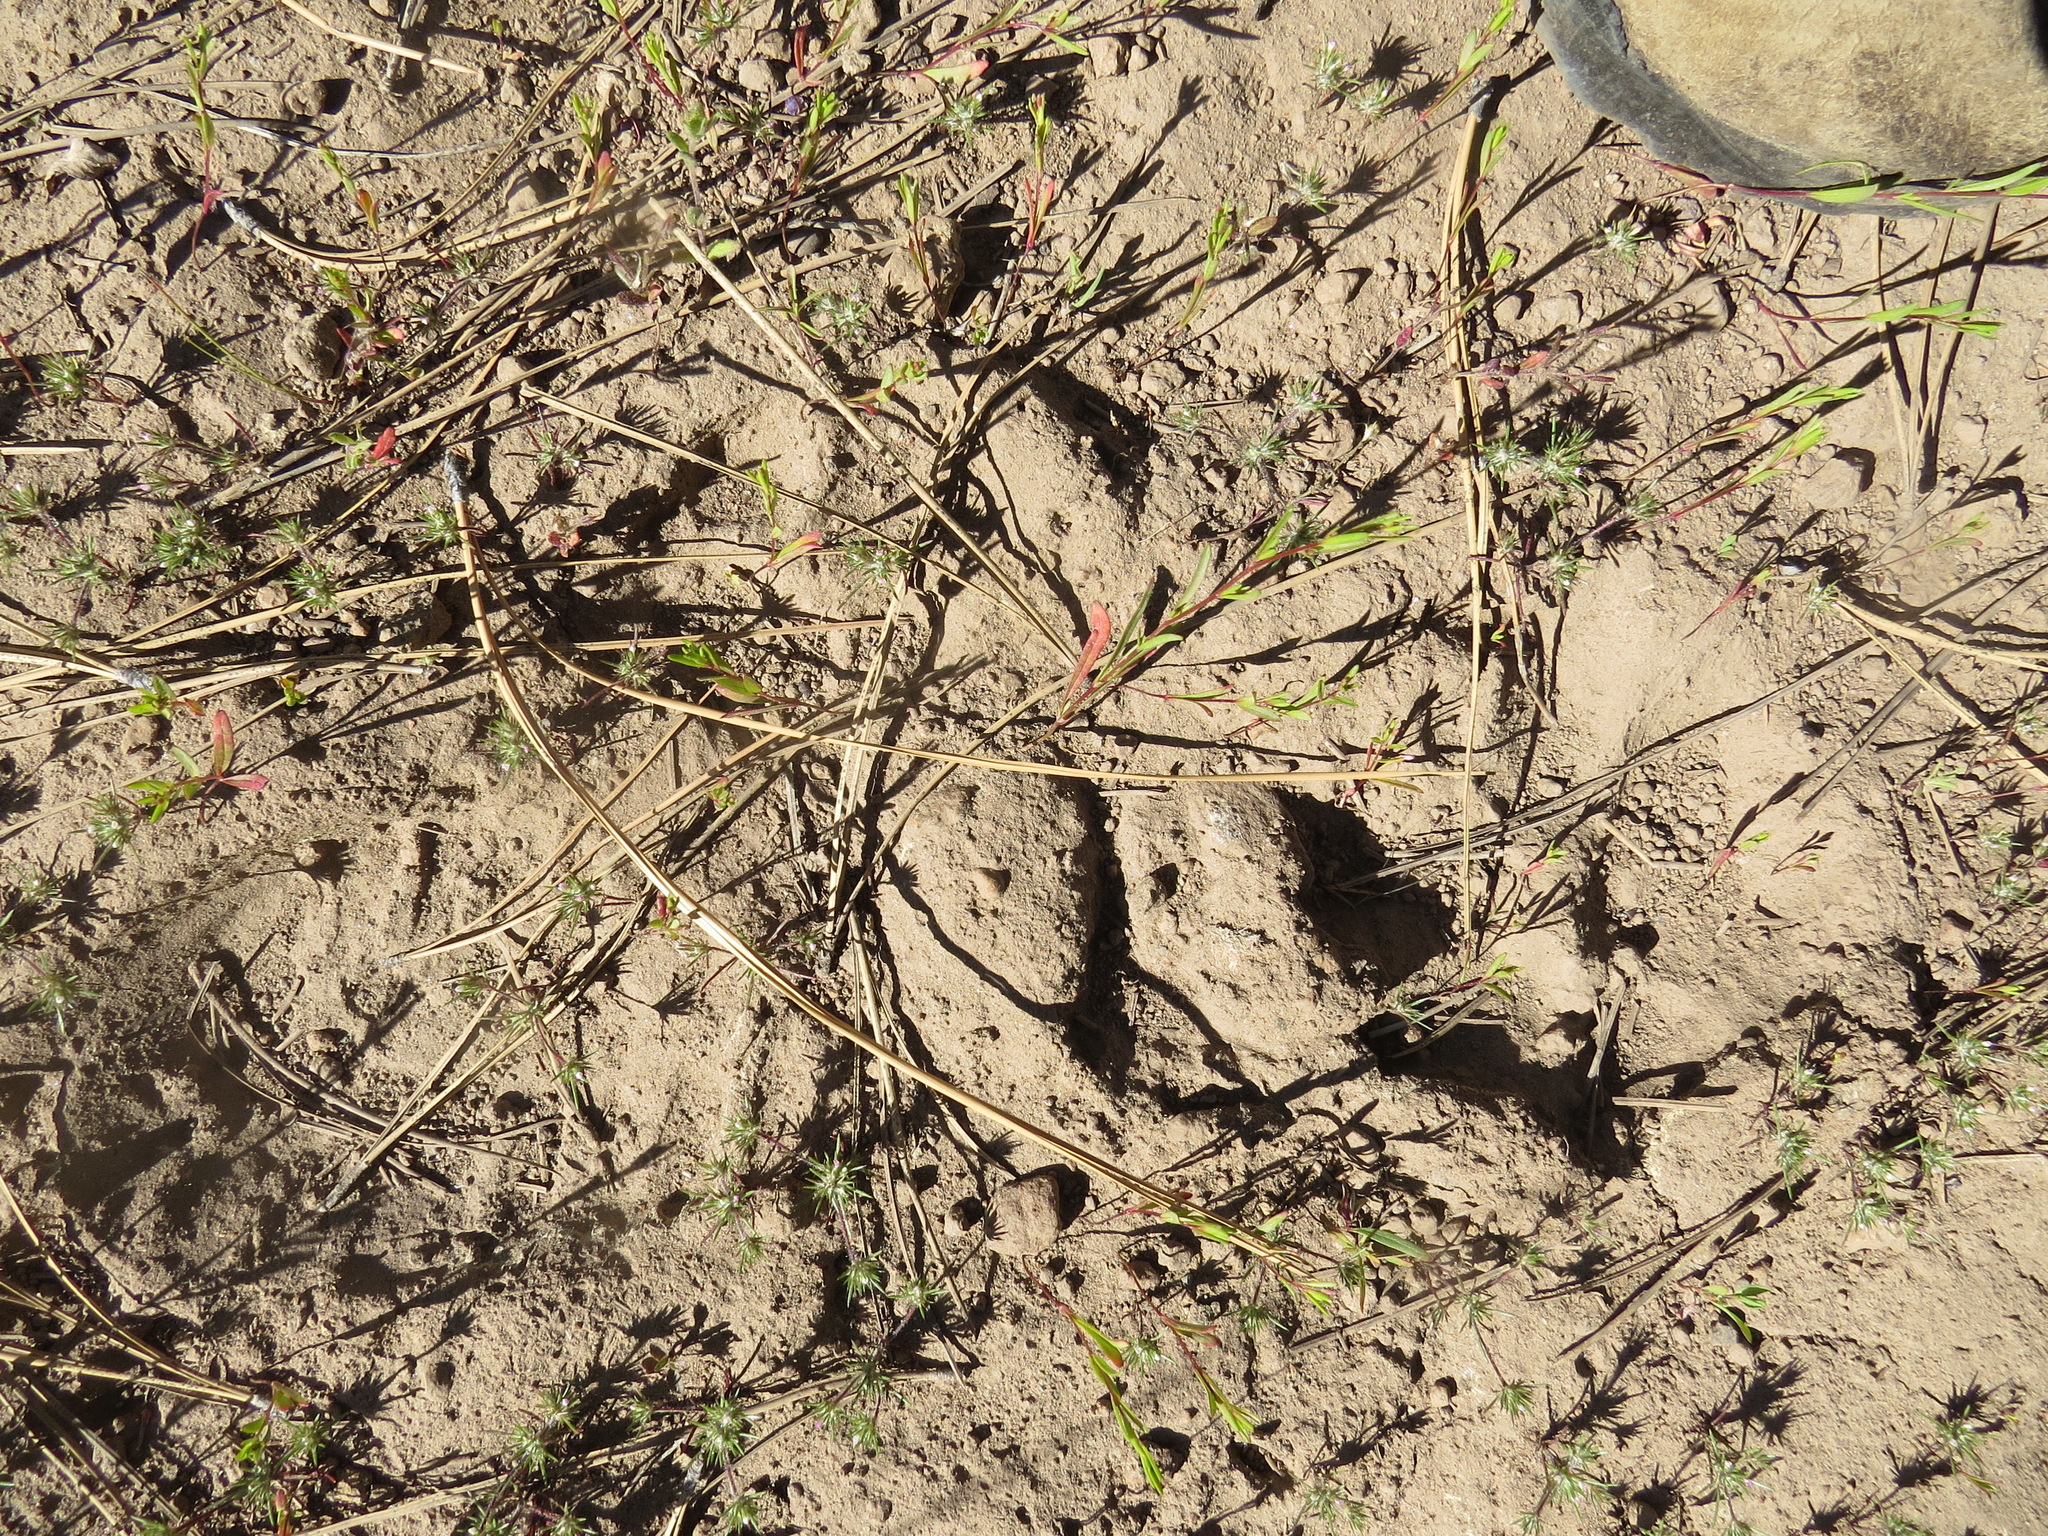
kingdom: Animalia
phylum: Chordata
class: Mammalia
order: Carnivora
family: Canidae
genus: Canis
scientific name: Canis lupus
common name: Gray wolf
